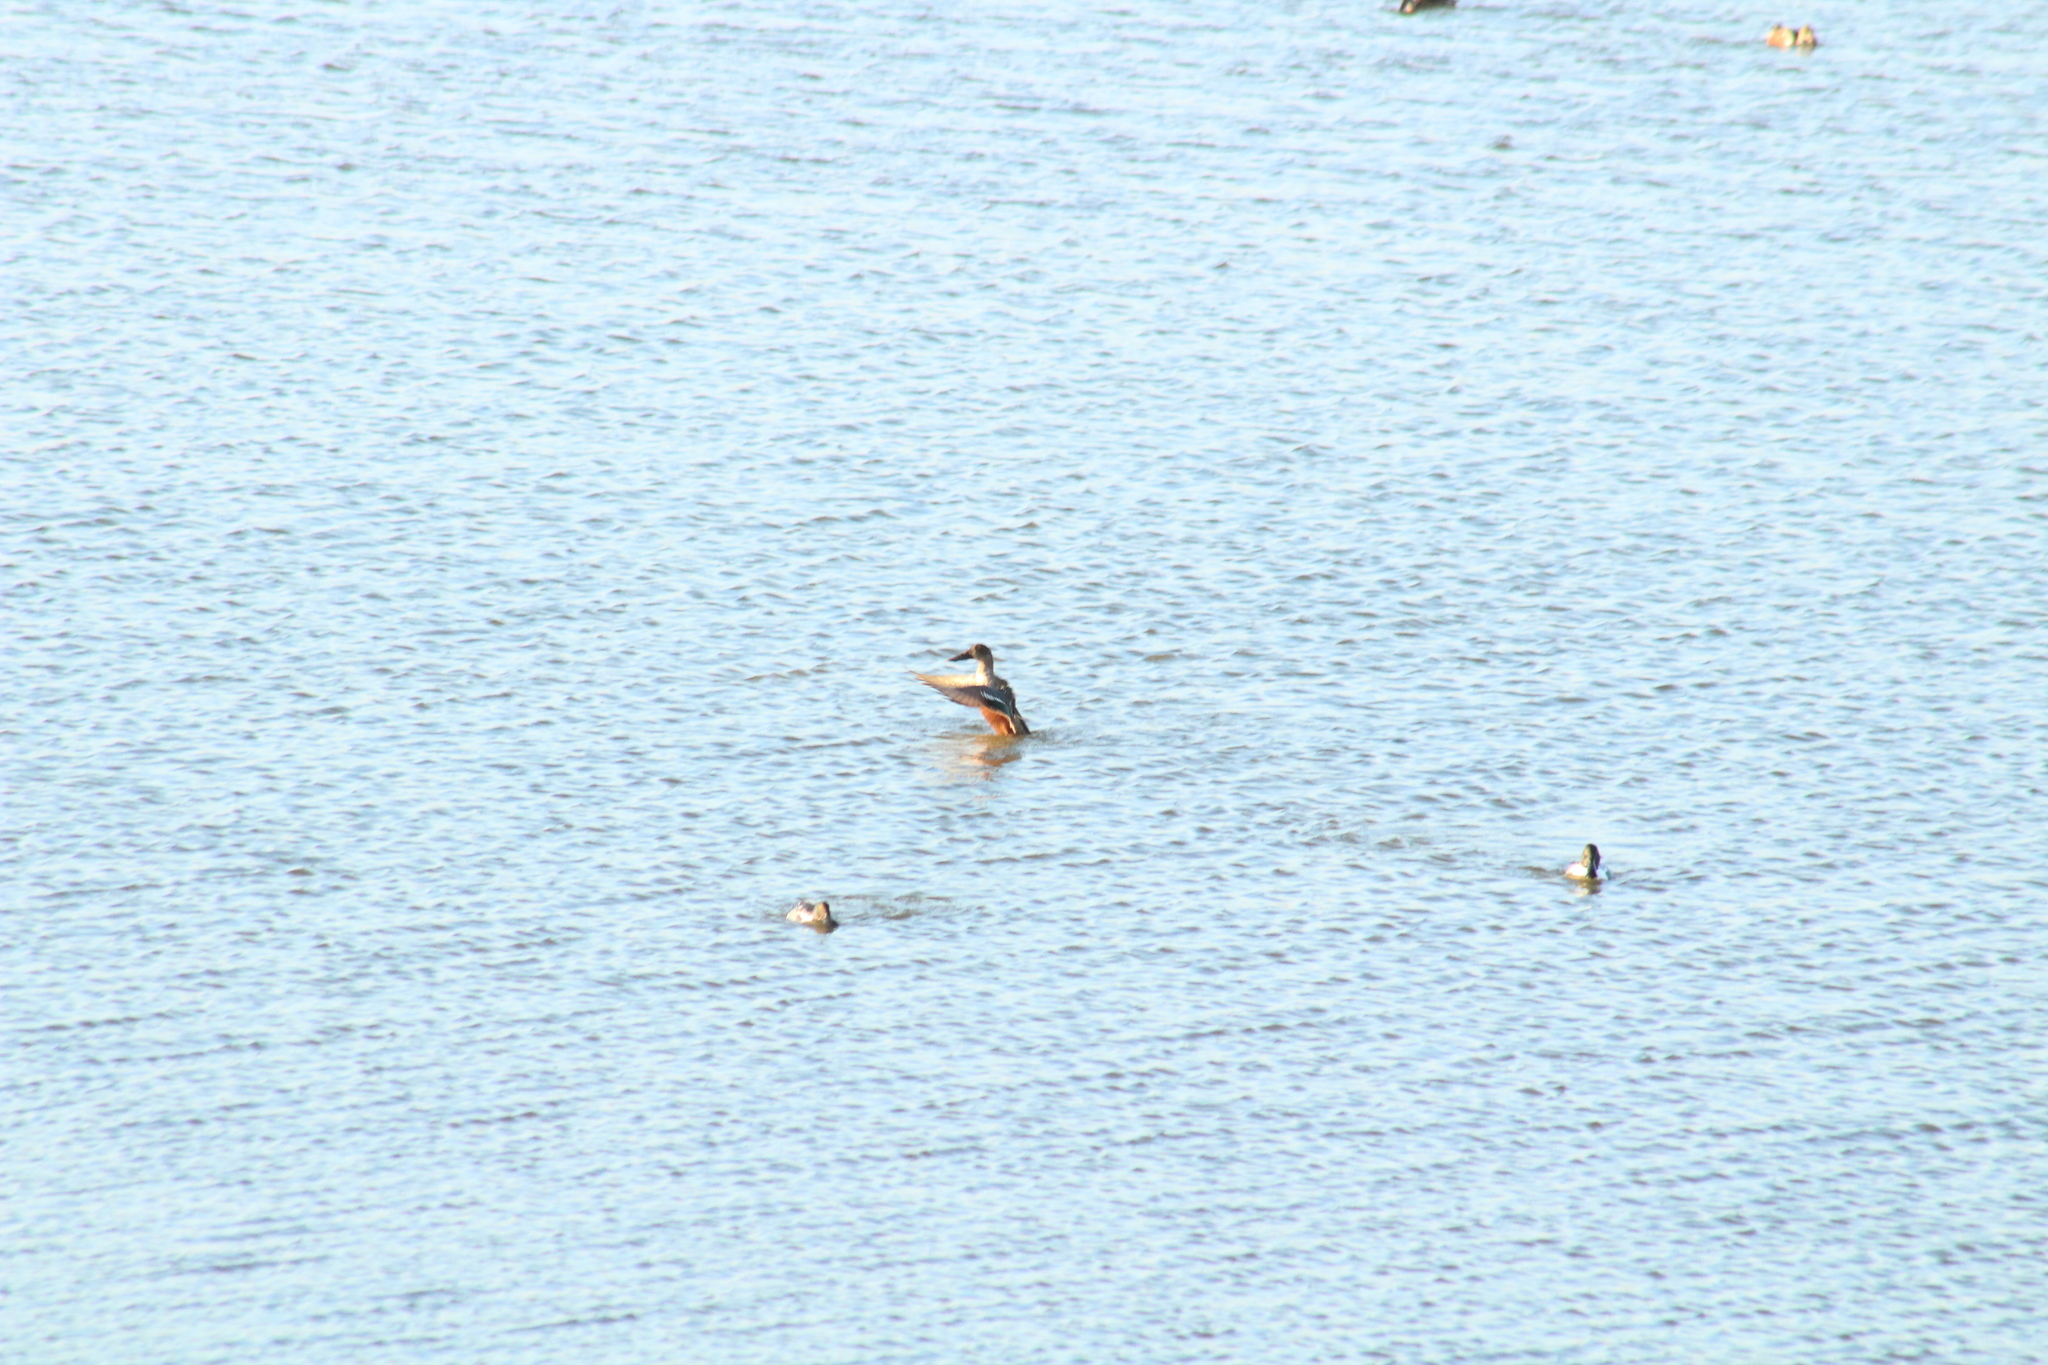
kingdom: Animalia
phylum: Chordata
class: Aves
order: Anseriformes
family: Anatidae
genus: Spatula
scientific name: Spatula clypeata
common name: Northern shoveler
